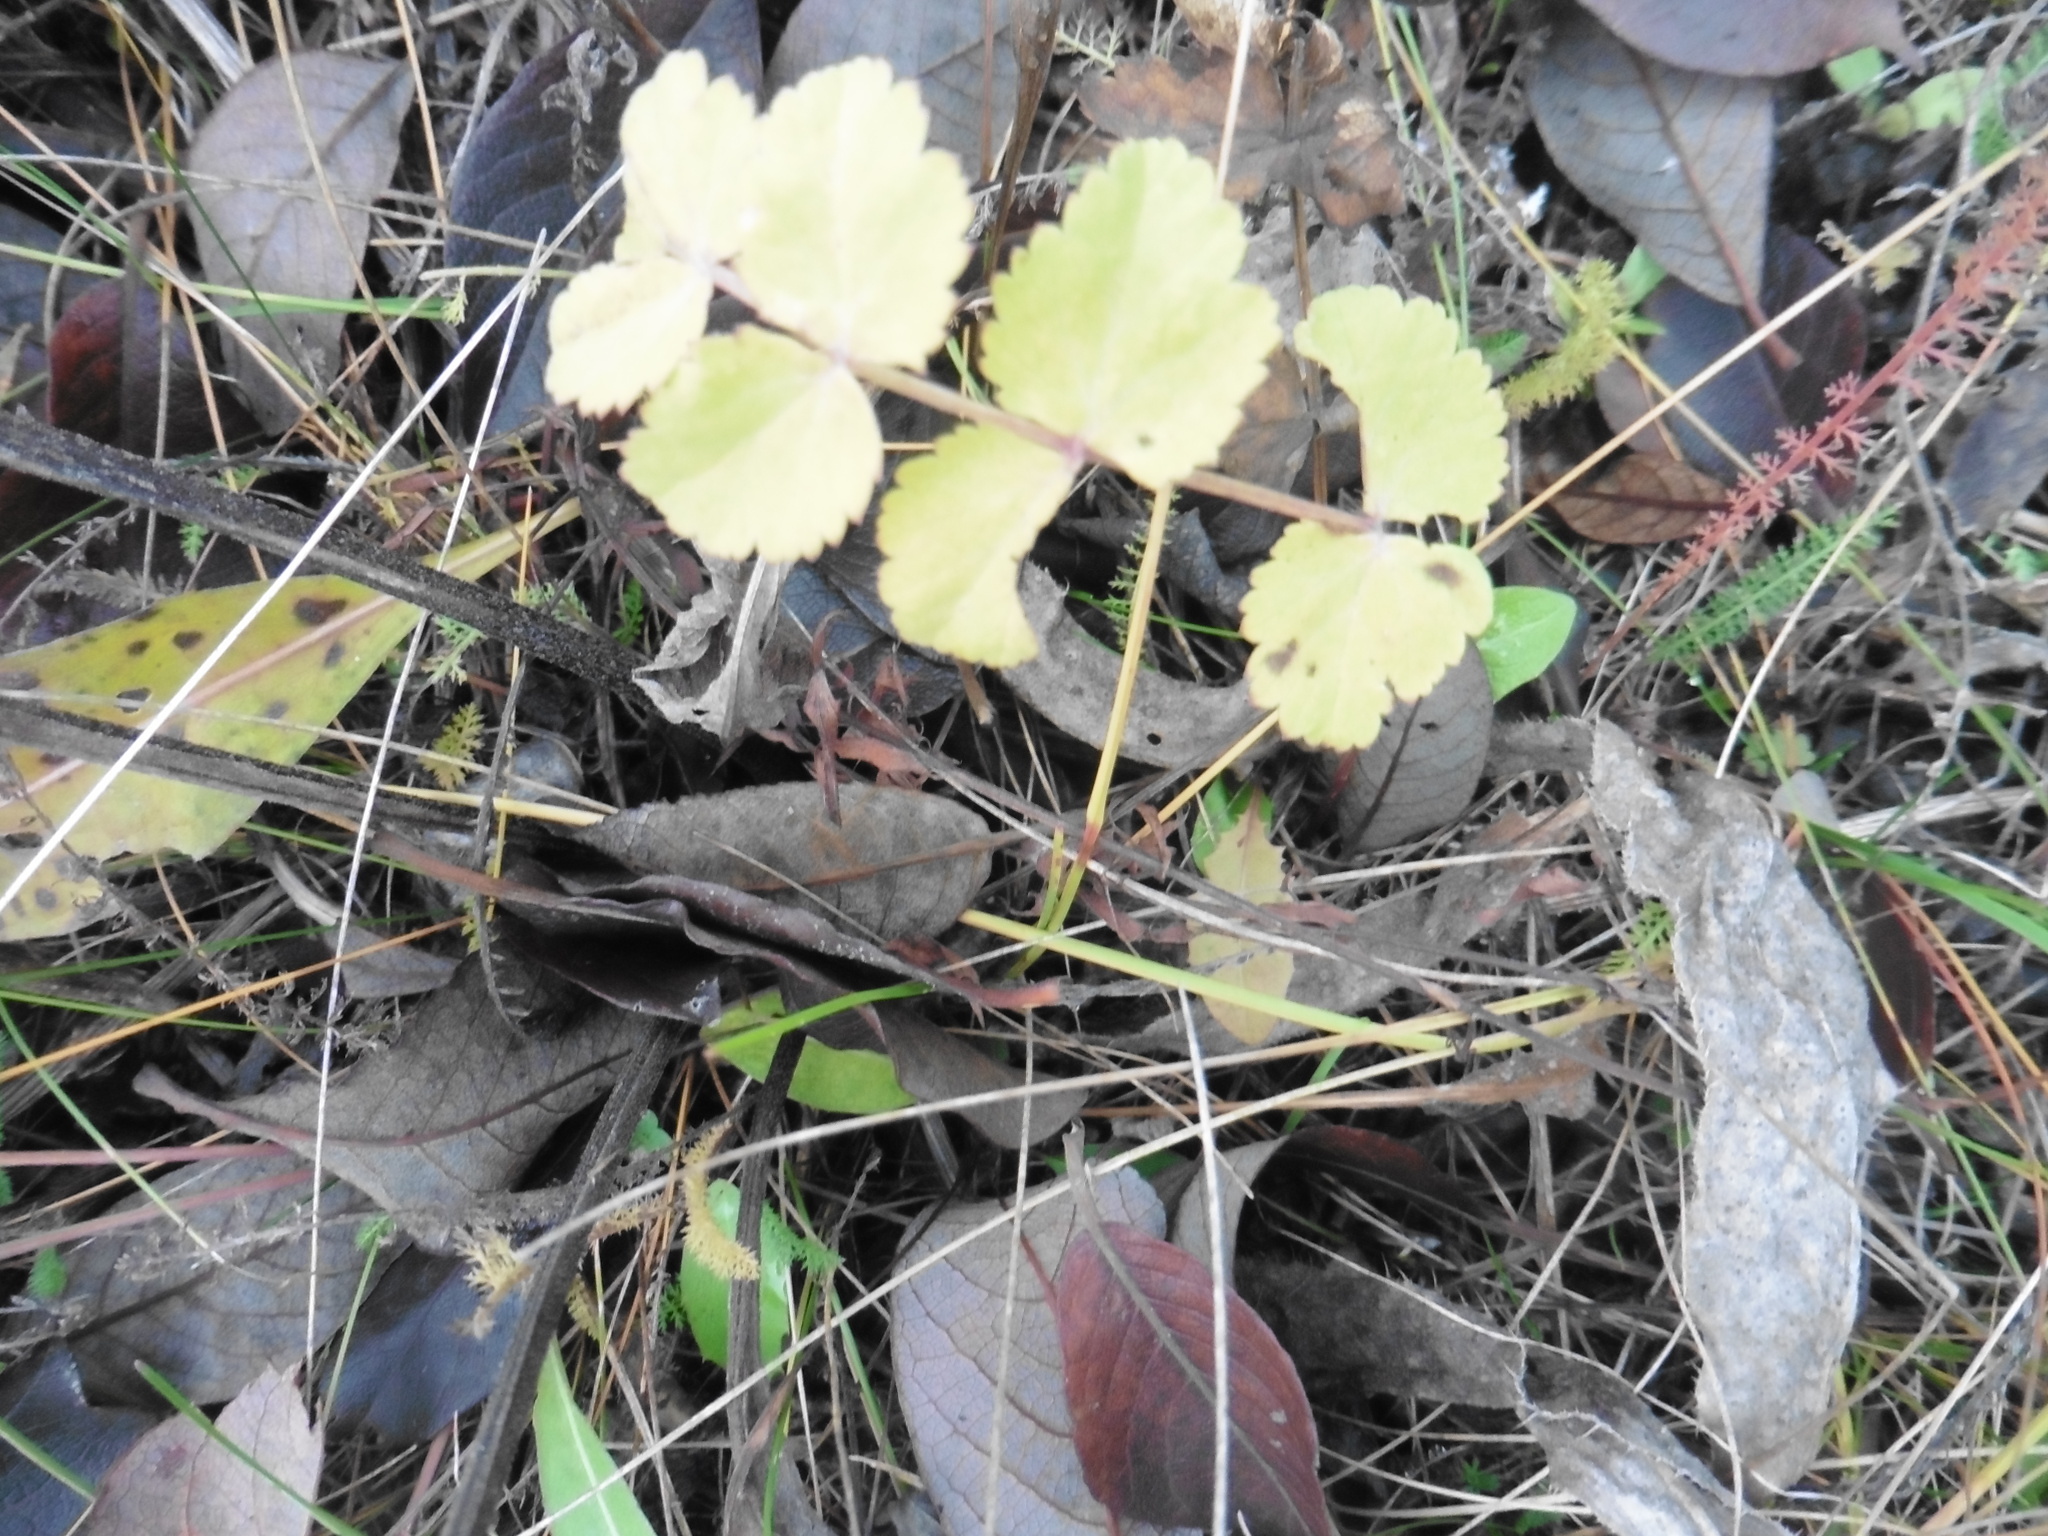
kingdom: Plantae
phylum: Tracheophyta
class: Magnoliopsida
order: Apiales
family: Apiaceae
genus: Pimpinella
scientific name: Pimpinella saxifraga
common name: Burnet-saxifrage
